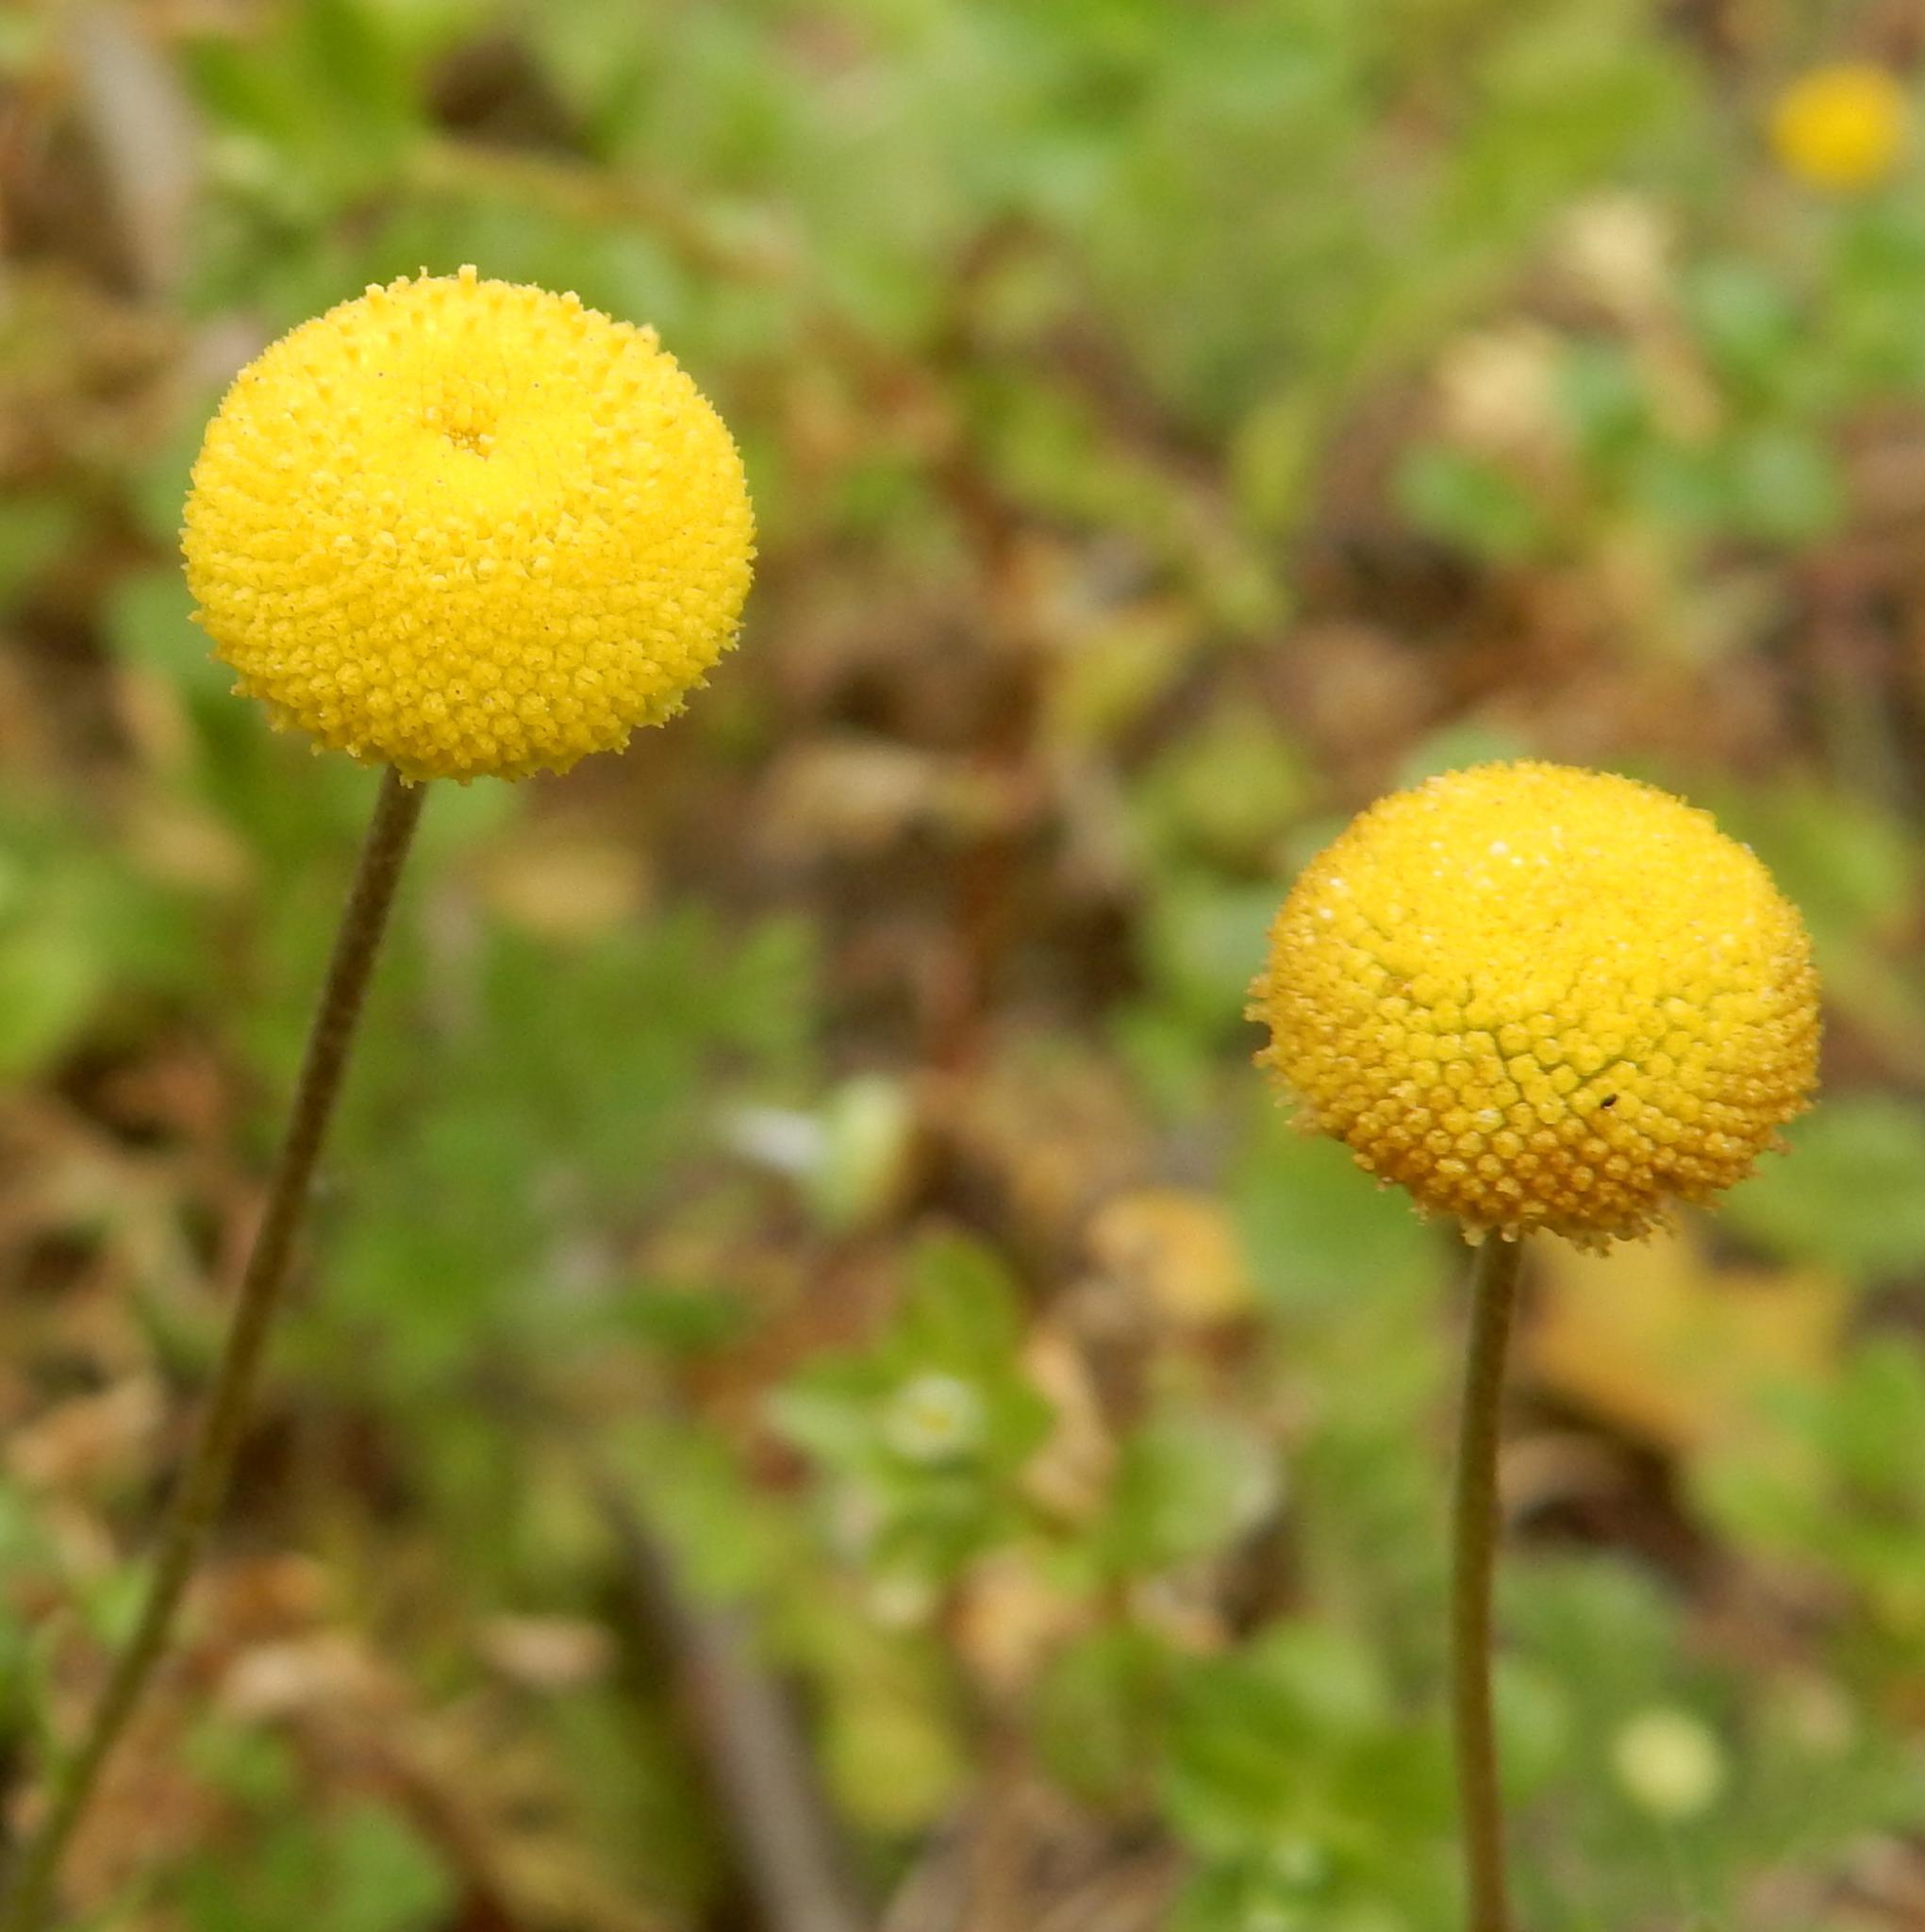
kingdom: Plantae
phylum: Tracheophyta
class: Magnoliopsida
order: Asterales
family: Asteraceae
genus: Cotula
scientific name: Cotula discolor
